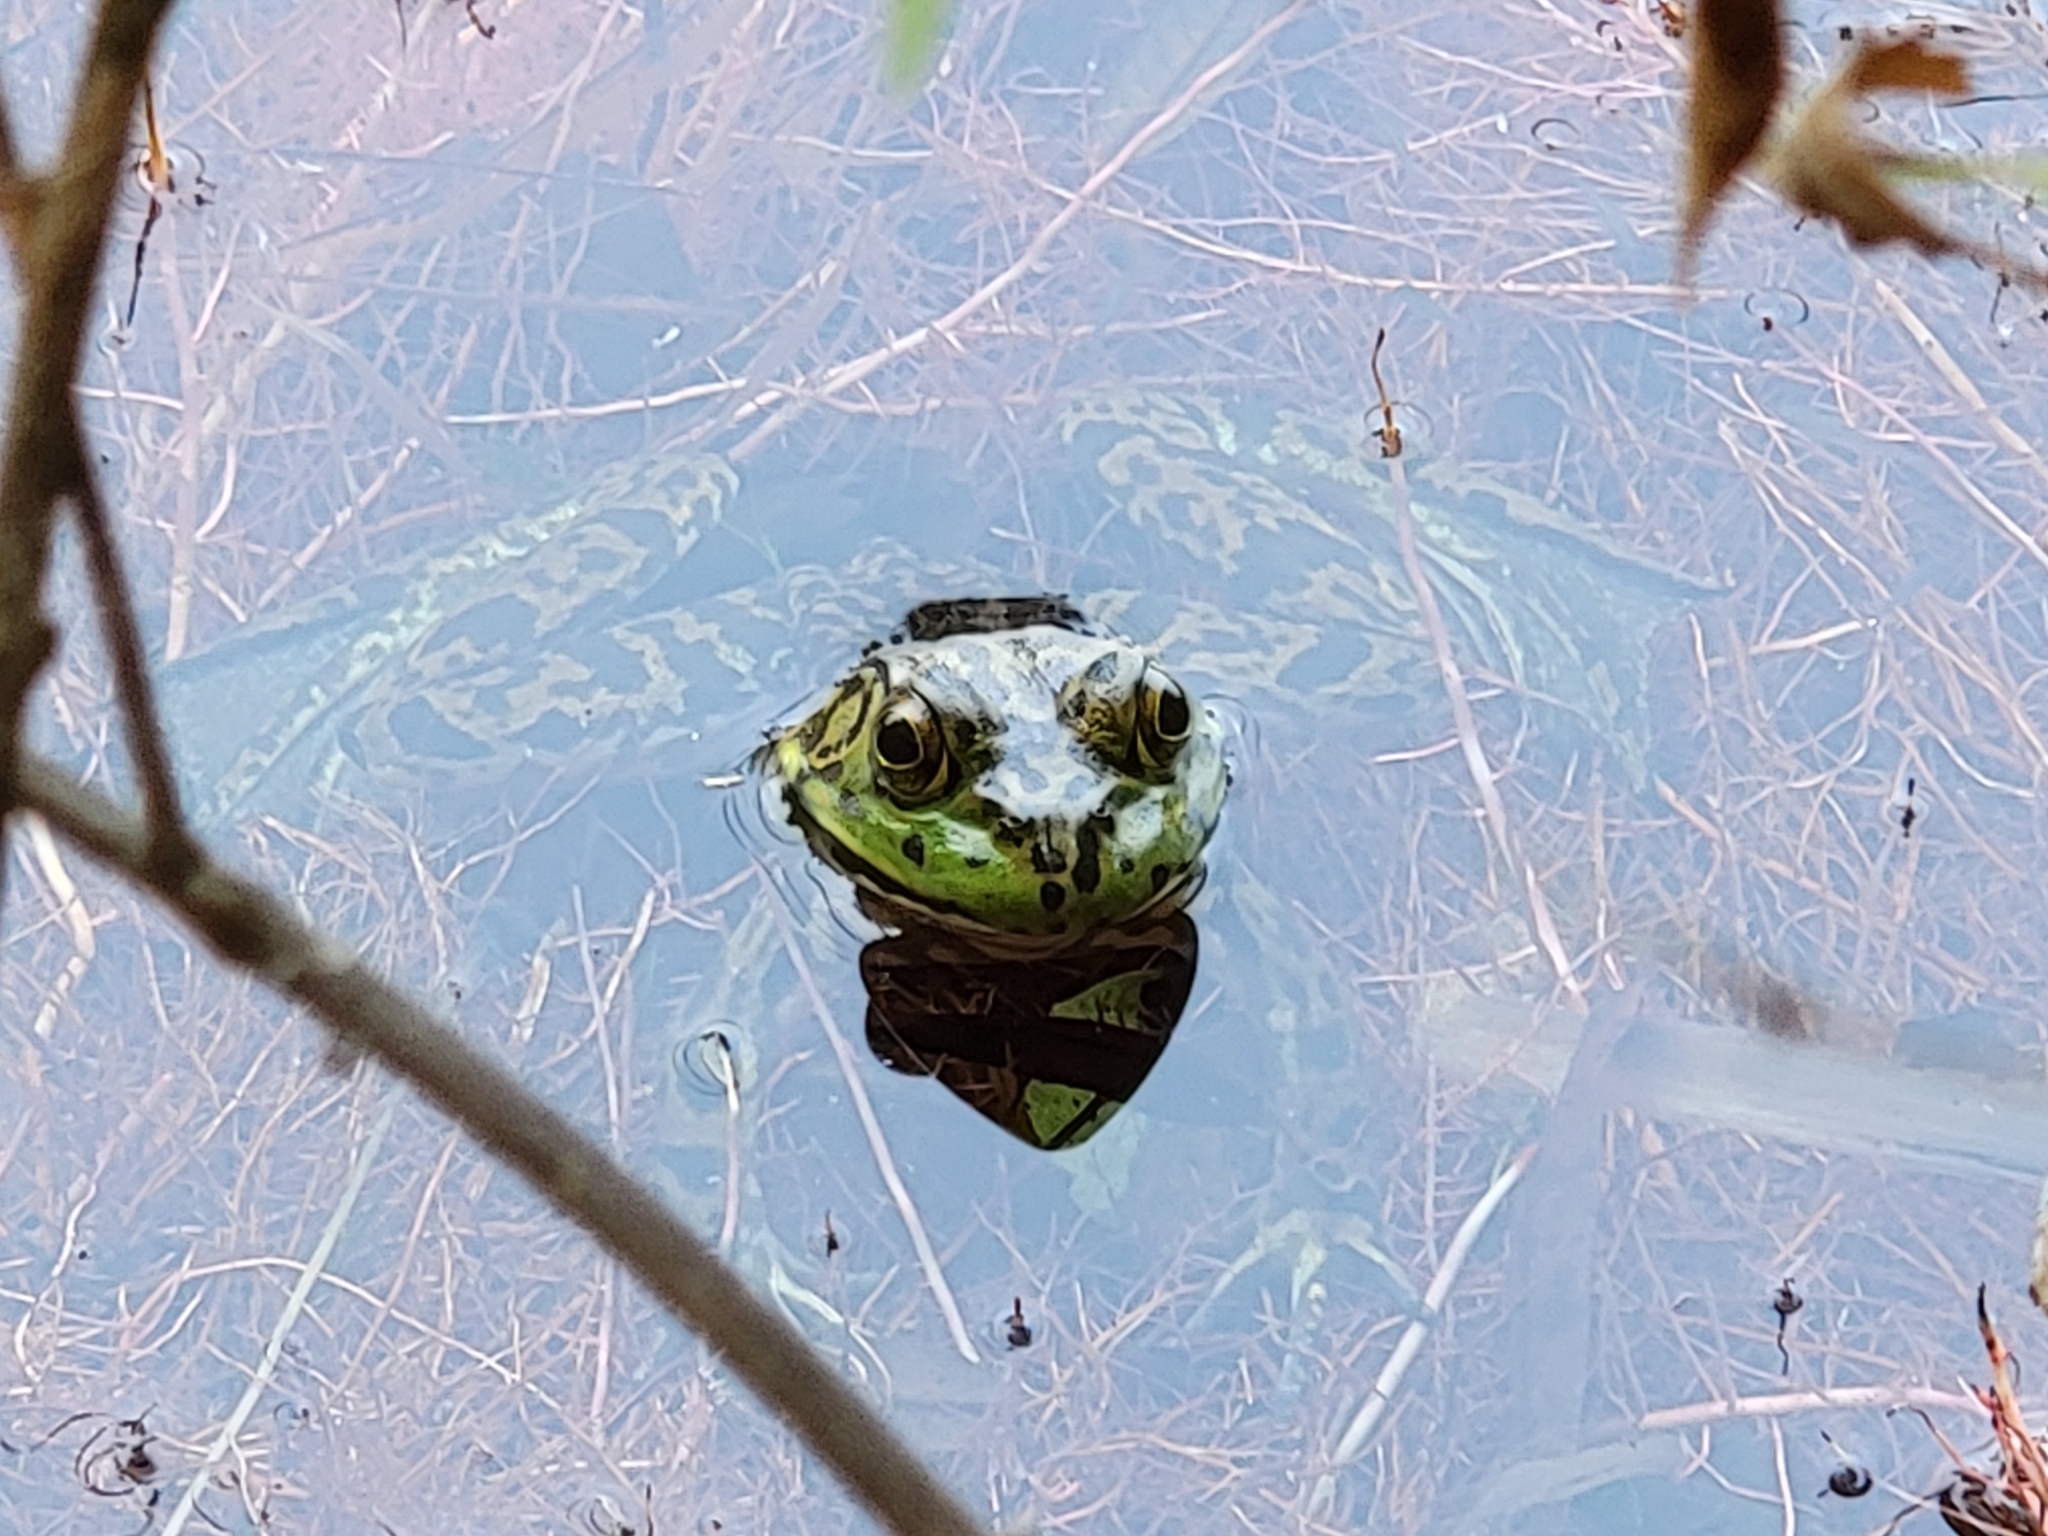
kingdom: Animalia
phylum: Chordata
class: Amphibia
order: Anura
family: Ranidae
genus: Lithobates
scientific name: Lithobates catesbeianus
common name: American bullfrog
